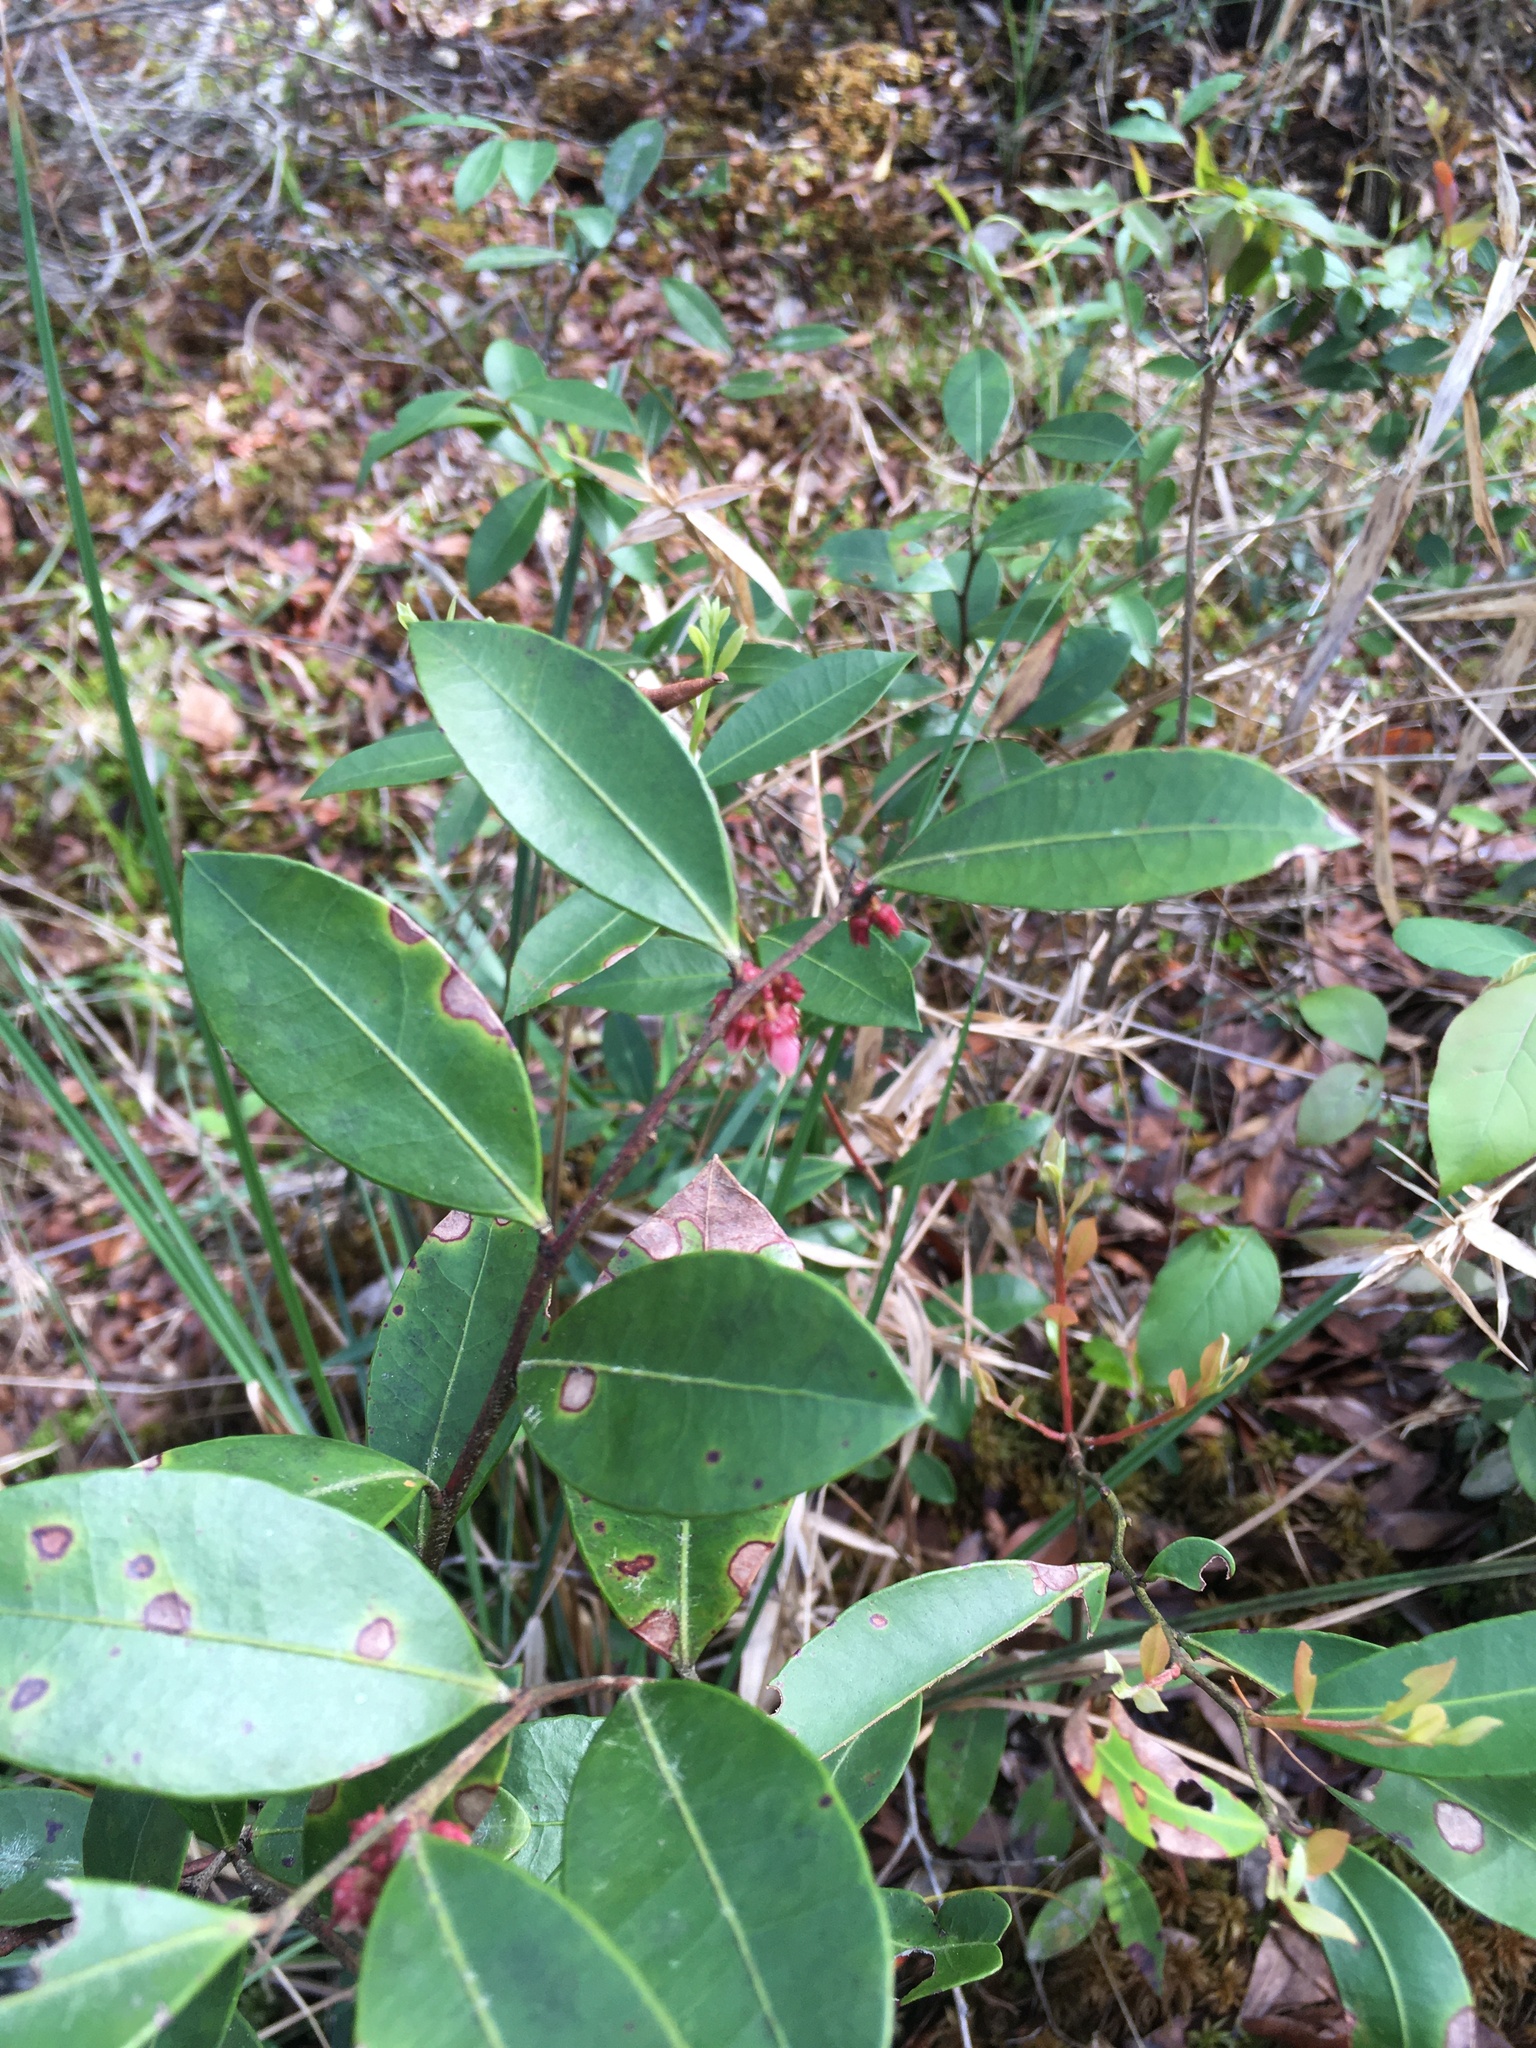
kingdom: Plantae
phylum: Tracheophyta
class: Magnoliopsida
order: Ericales
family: Ericaceae
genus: Lyonia
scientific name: Lyonia lucida
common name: Fetterbush
